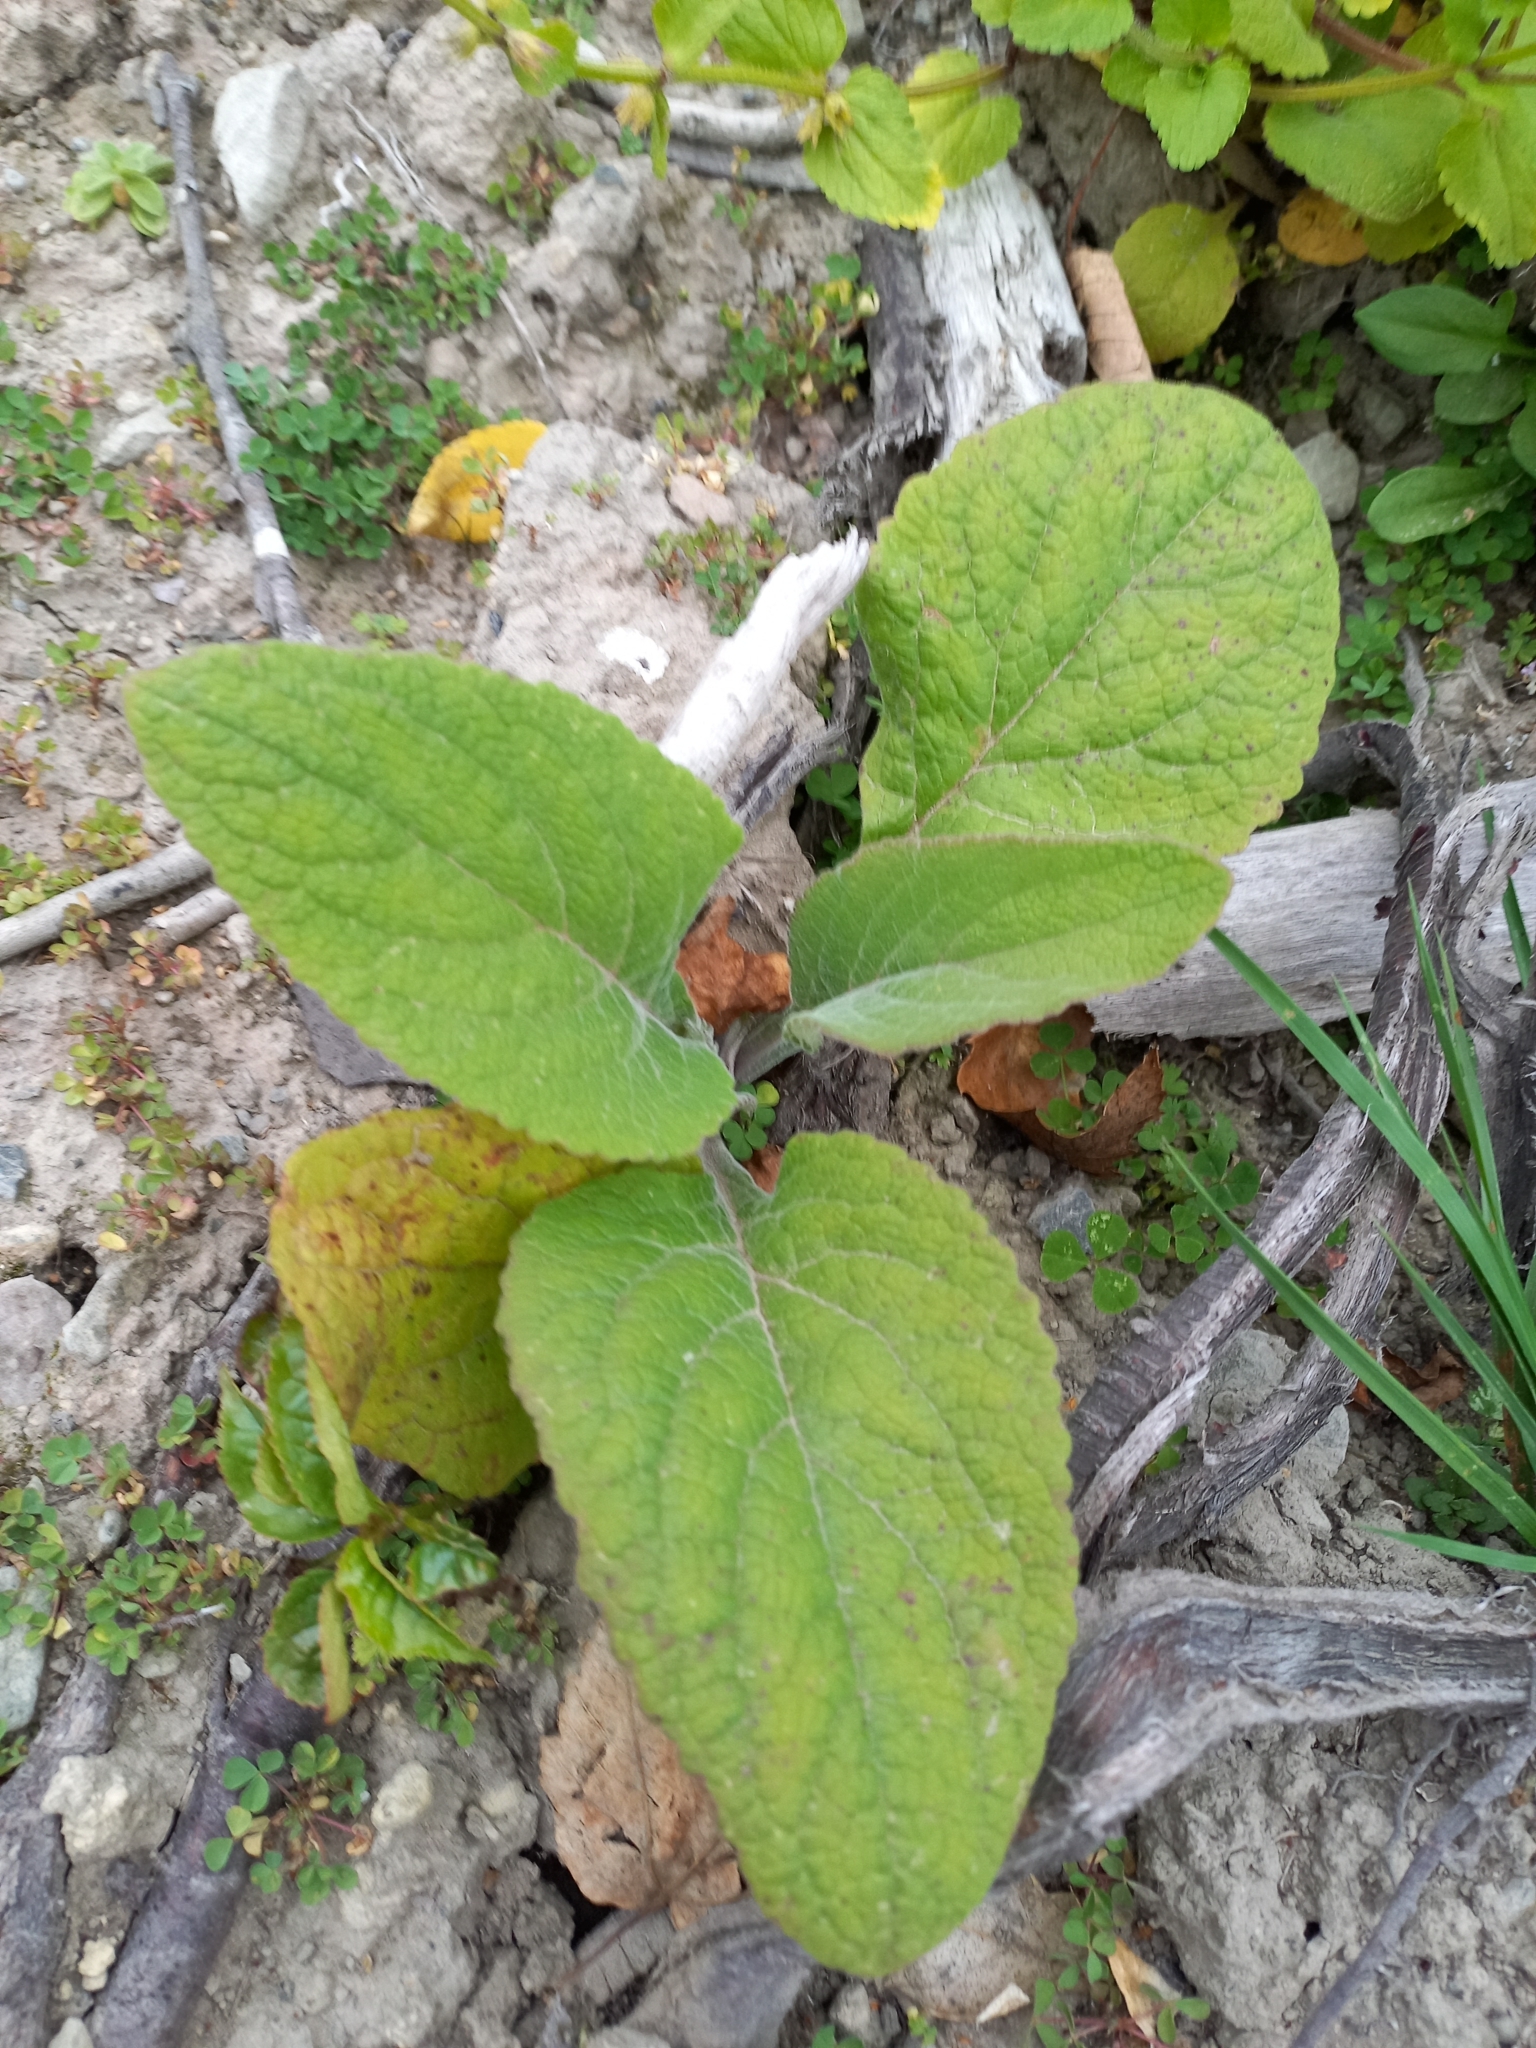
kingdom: Plantae
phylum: Tracheophyta
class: Magnoliopsida
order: Lamiales
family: Plantaginaceae
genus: Digitalis
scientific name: Digitalis purpurea
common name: Foxglove
